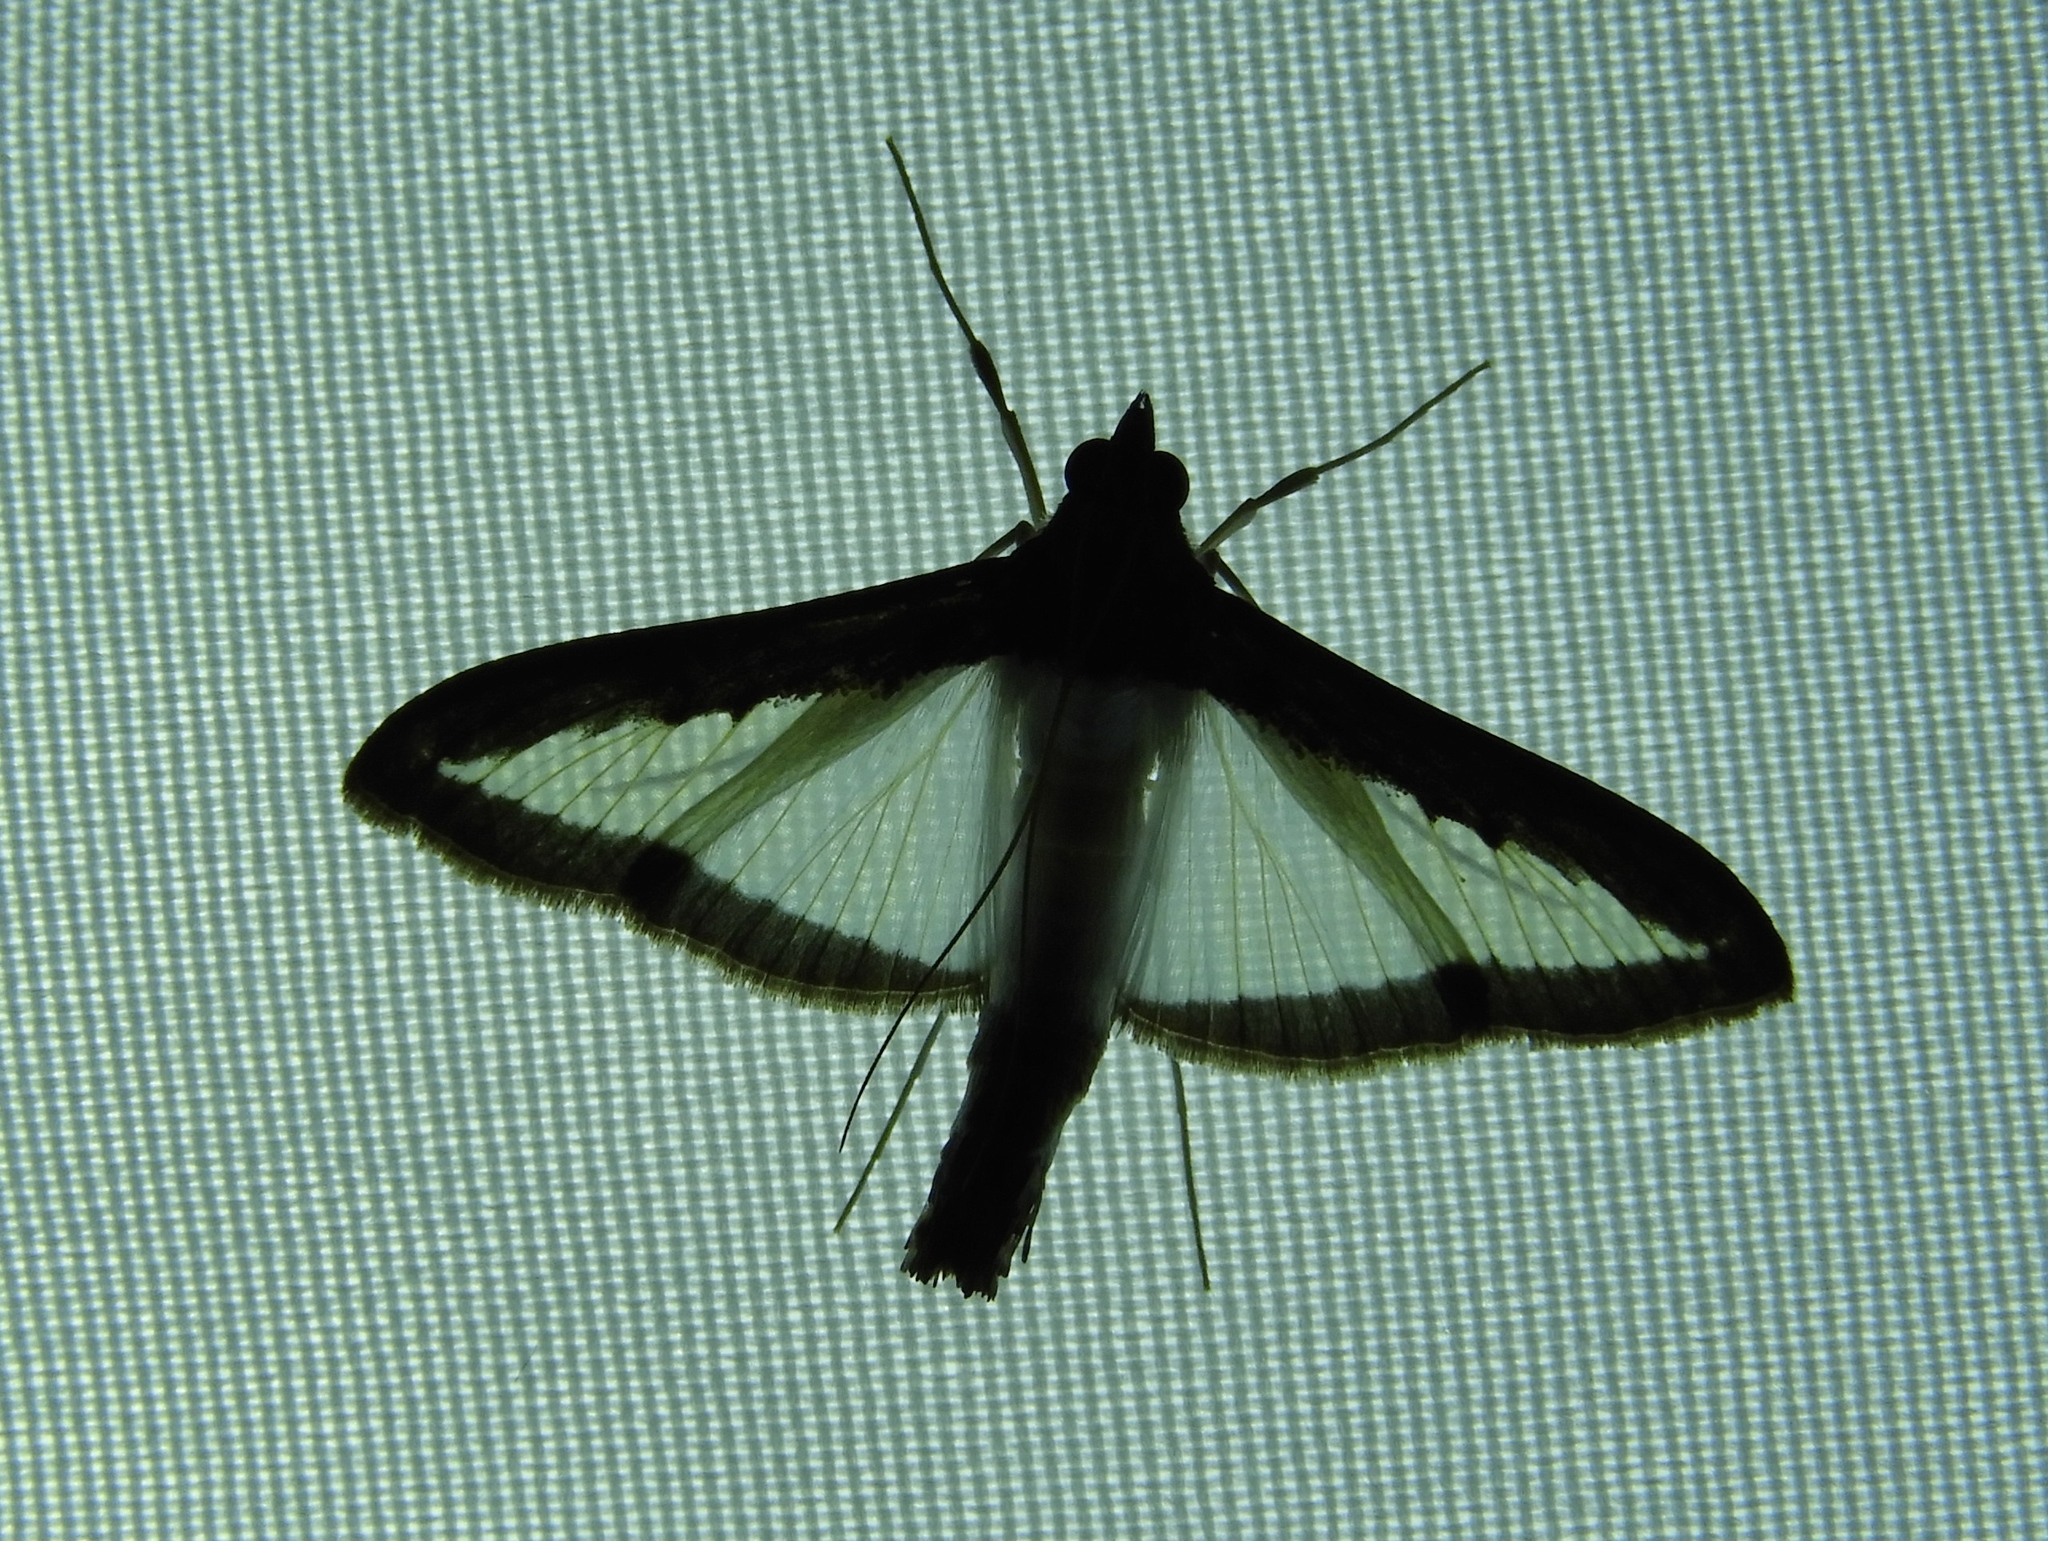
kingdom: Animalia
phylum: Arthropoda
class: Insecta
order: Lepidoptera
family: Crambidae
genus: Diaphania
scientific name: Diaphania
